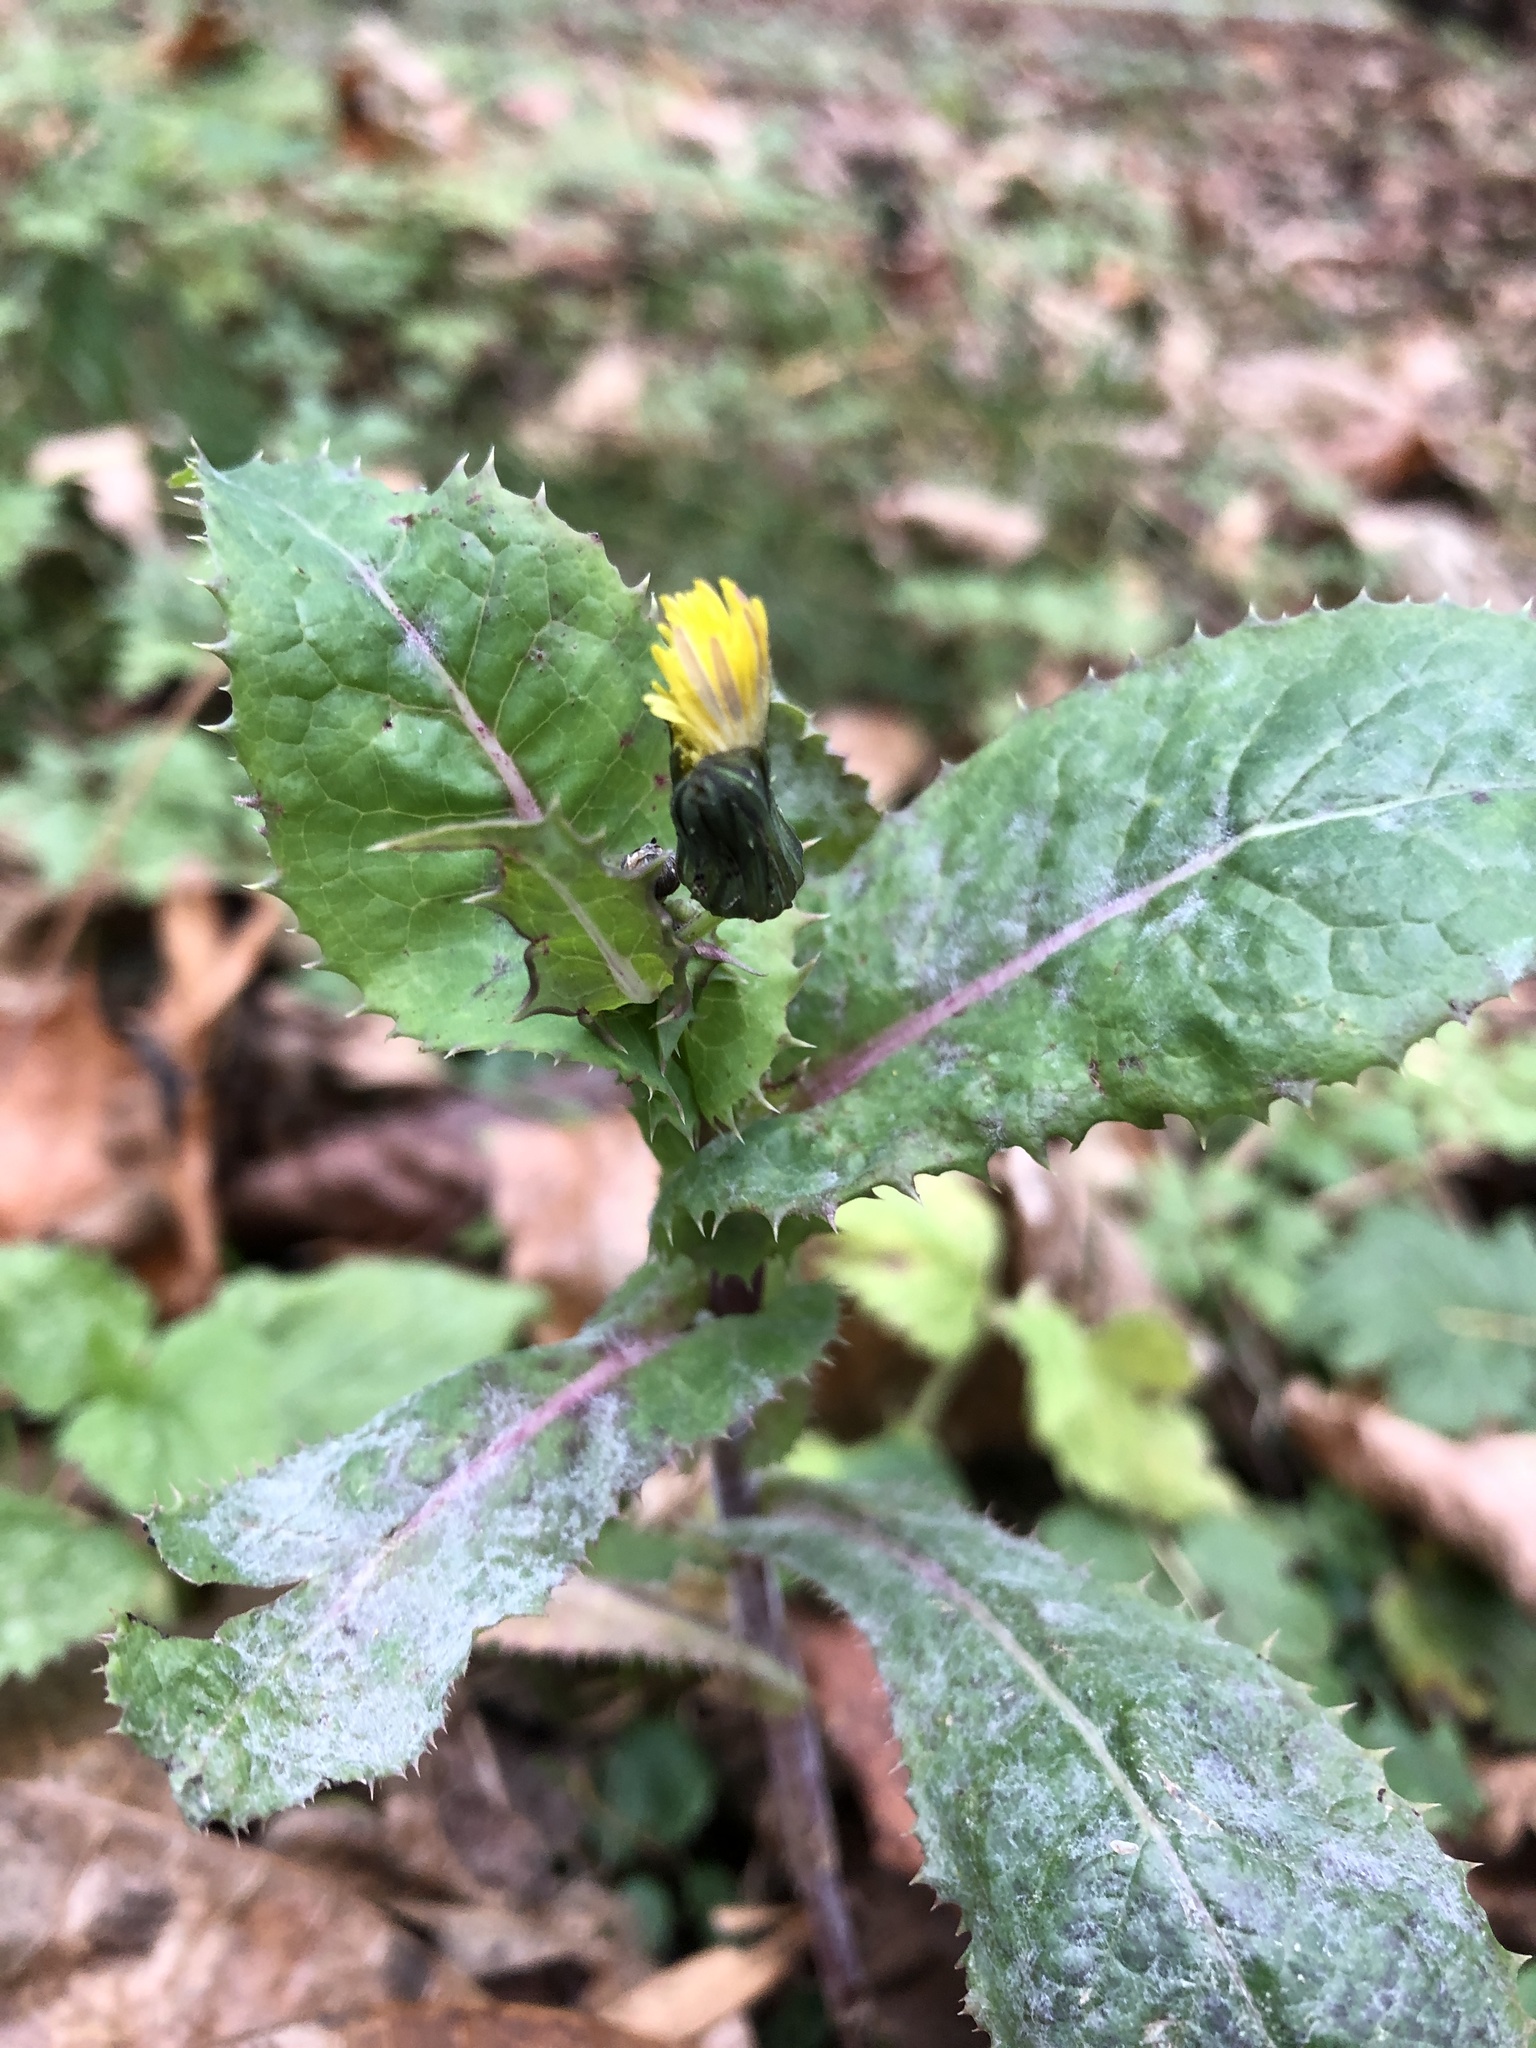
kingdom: Plantae
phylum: Tracheophyta
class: Magnoliopsida
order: Asterales
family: Asteraceae
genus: Sonchus
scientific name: Sonchus asper
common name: Prickly sow-thistle
